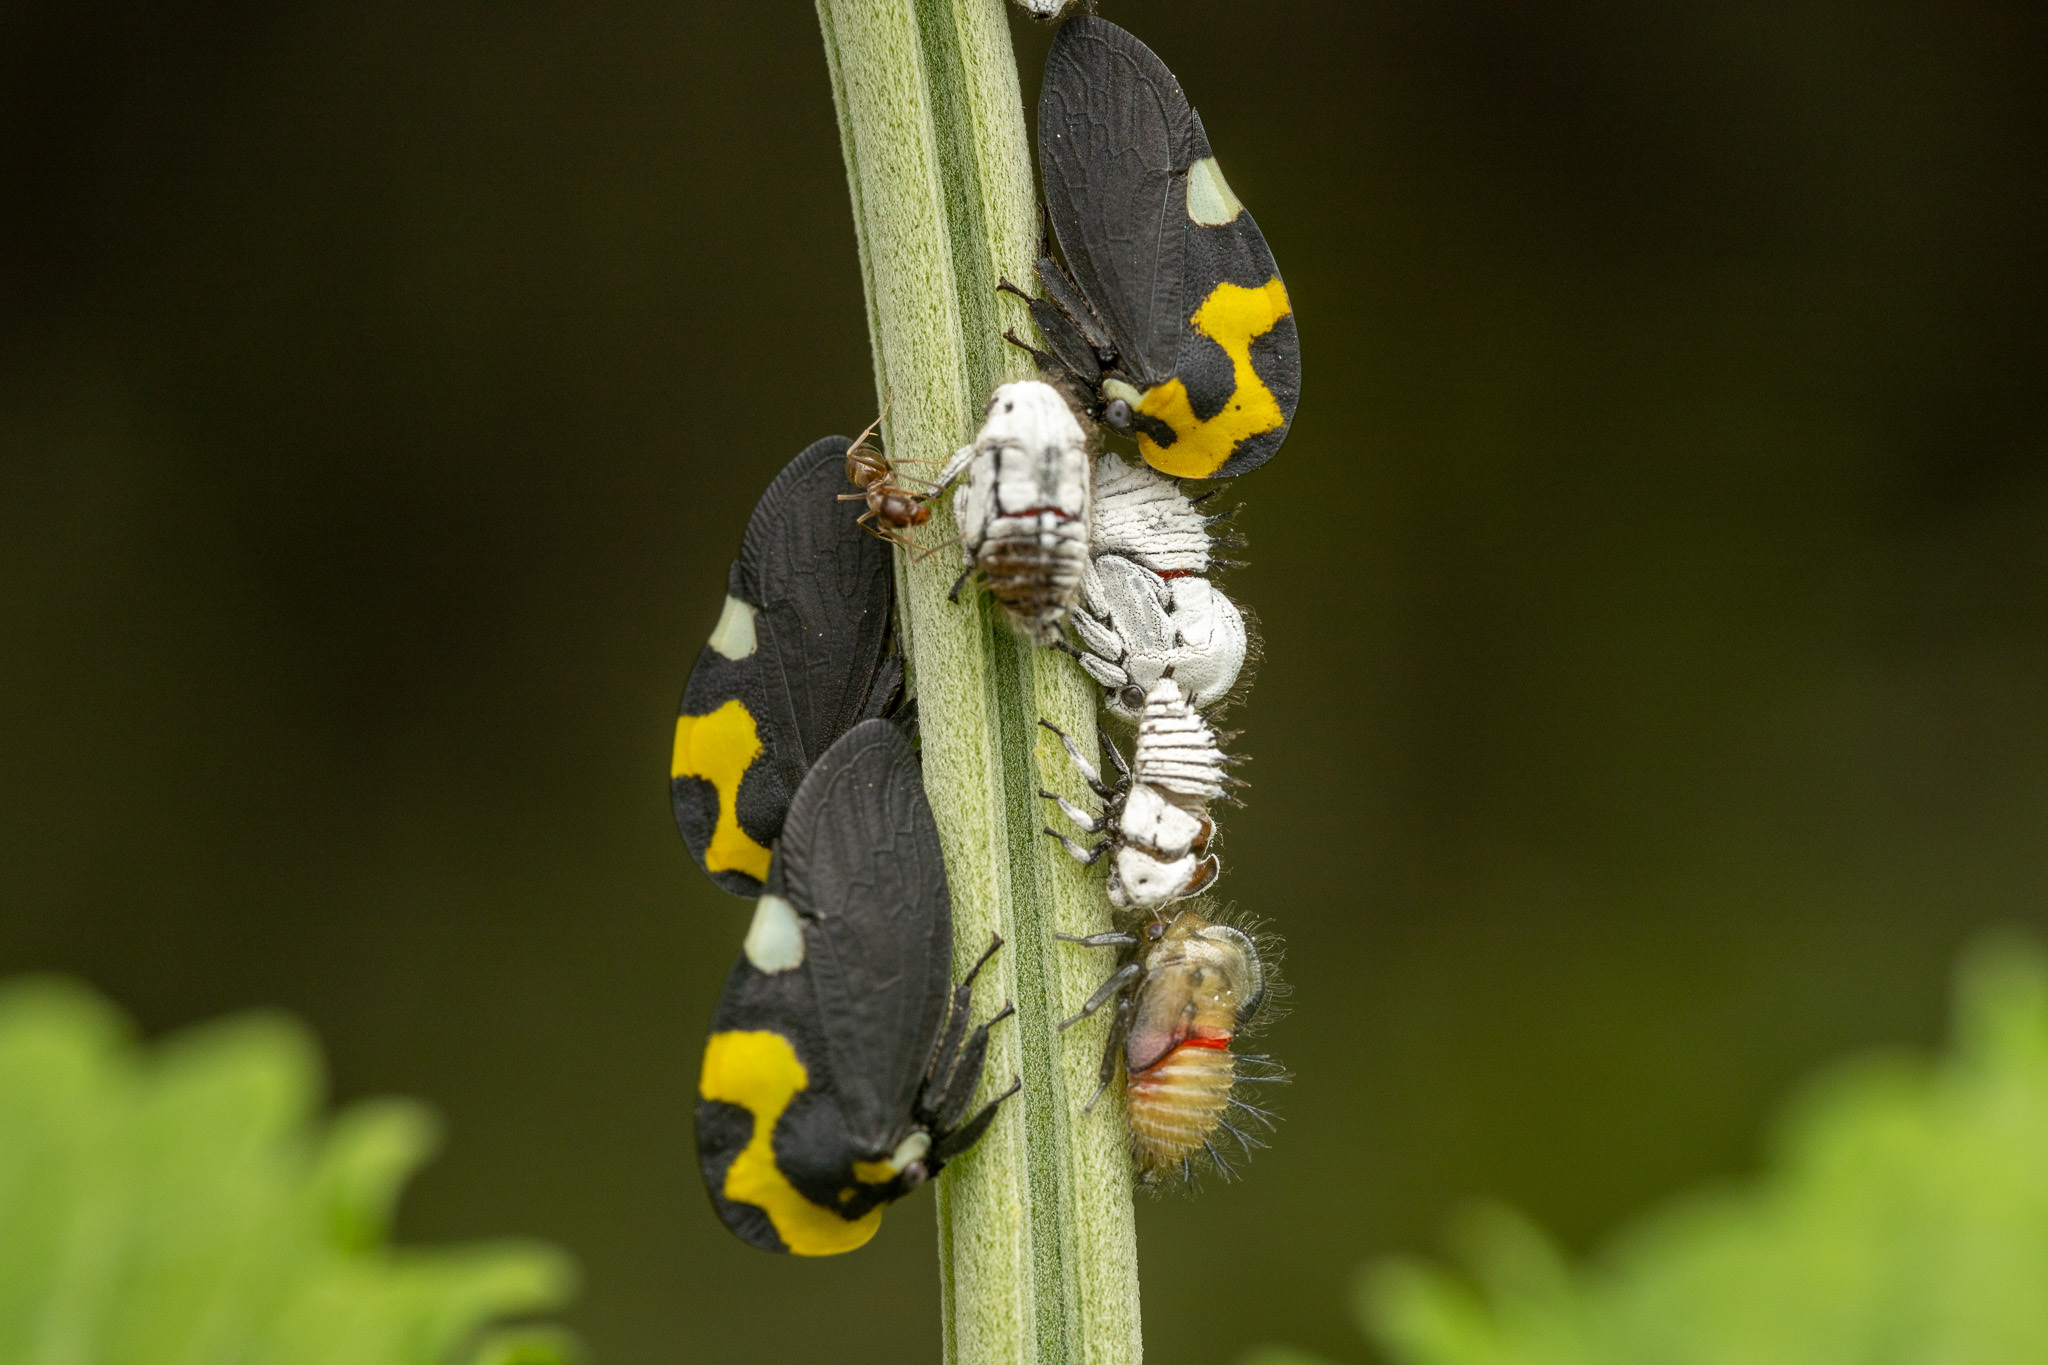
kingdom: Animalia
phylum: Arthropoda
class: Insecta
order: Hemiptera
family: Membracidae
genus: Membracis
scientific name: Membracis mexicana
